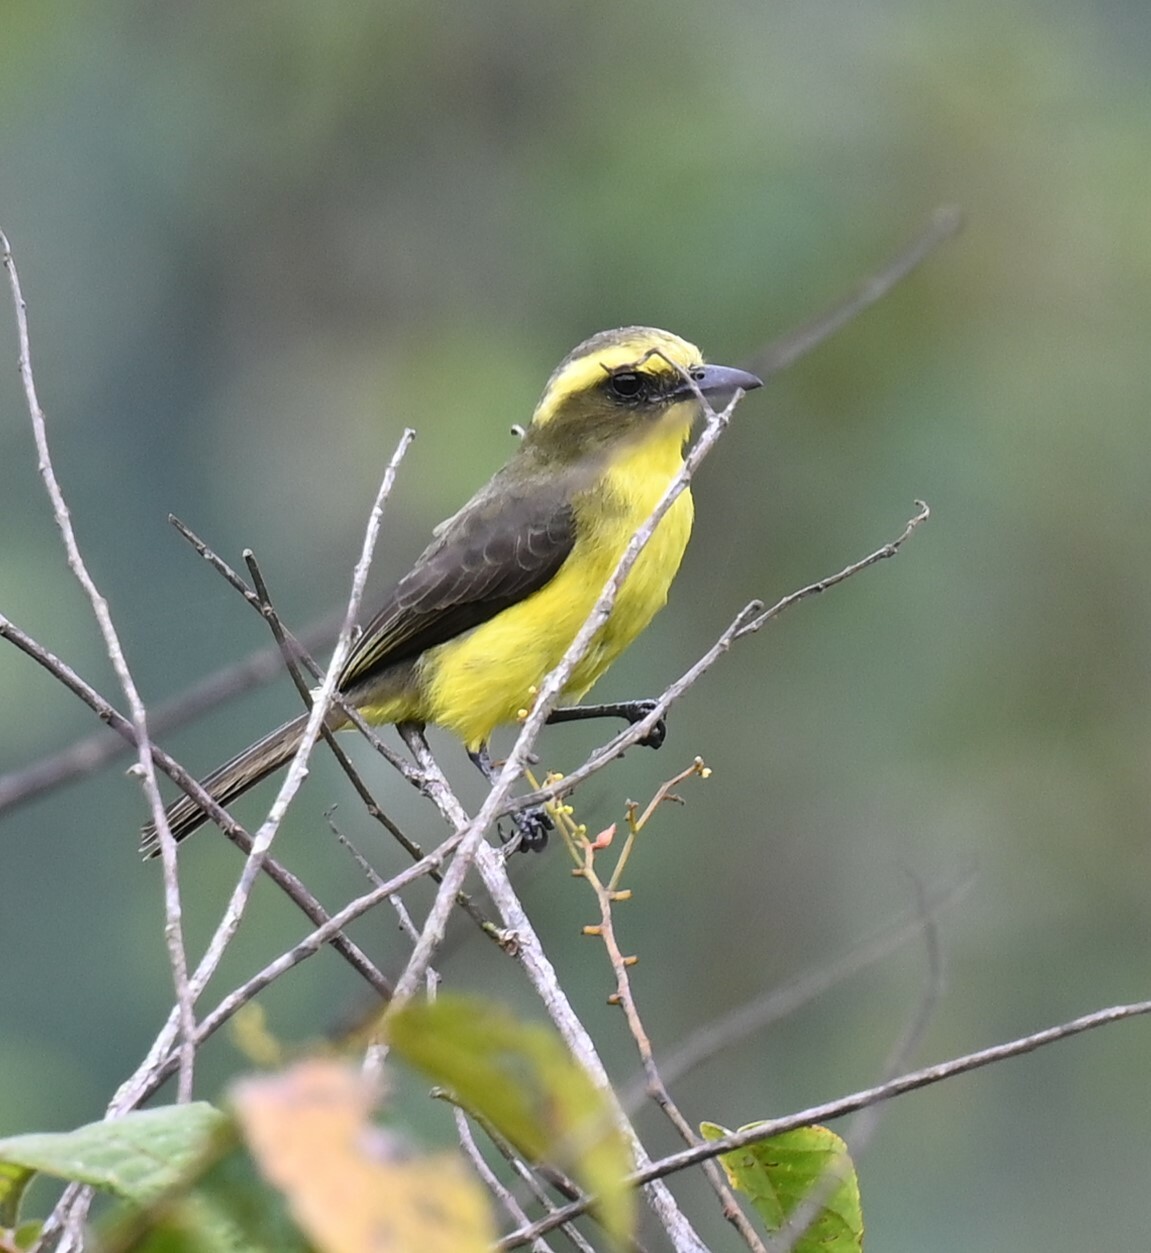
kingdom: Animalia
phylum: Chordata
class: Aves
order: Passeriformes
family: Tyrannidae
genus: Conopias
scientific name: Conopias cinchoneti
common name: Lemon-browed flycatcher
